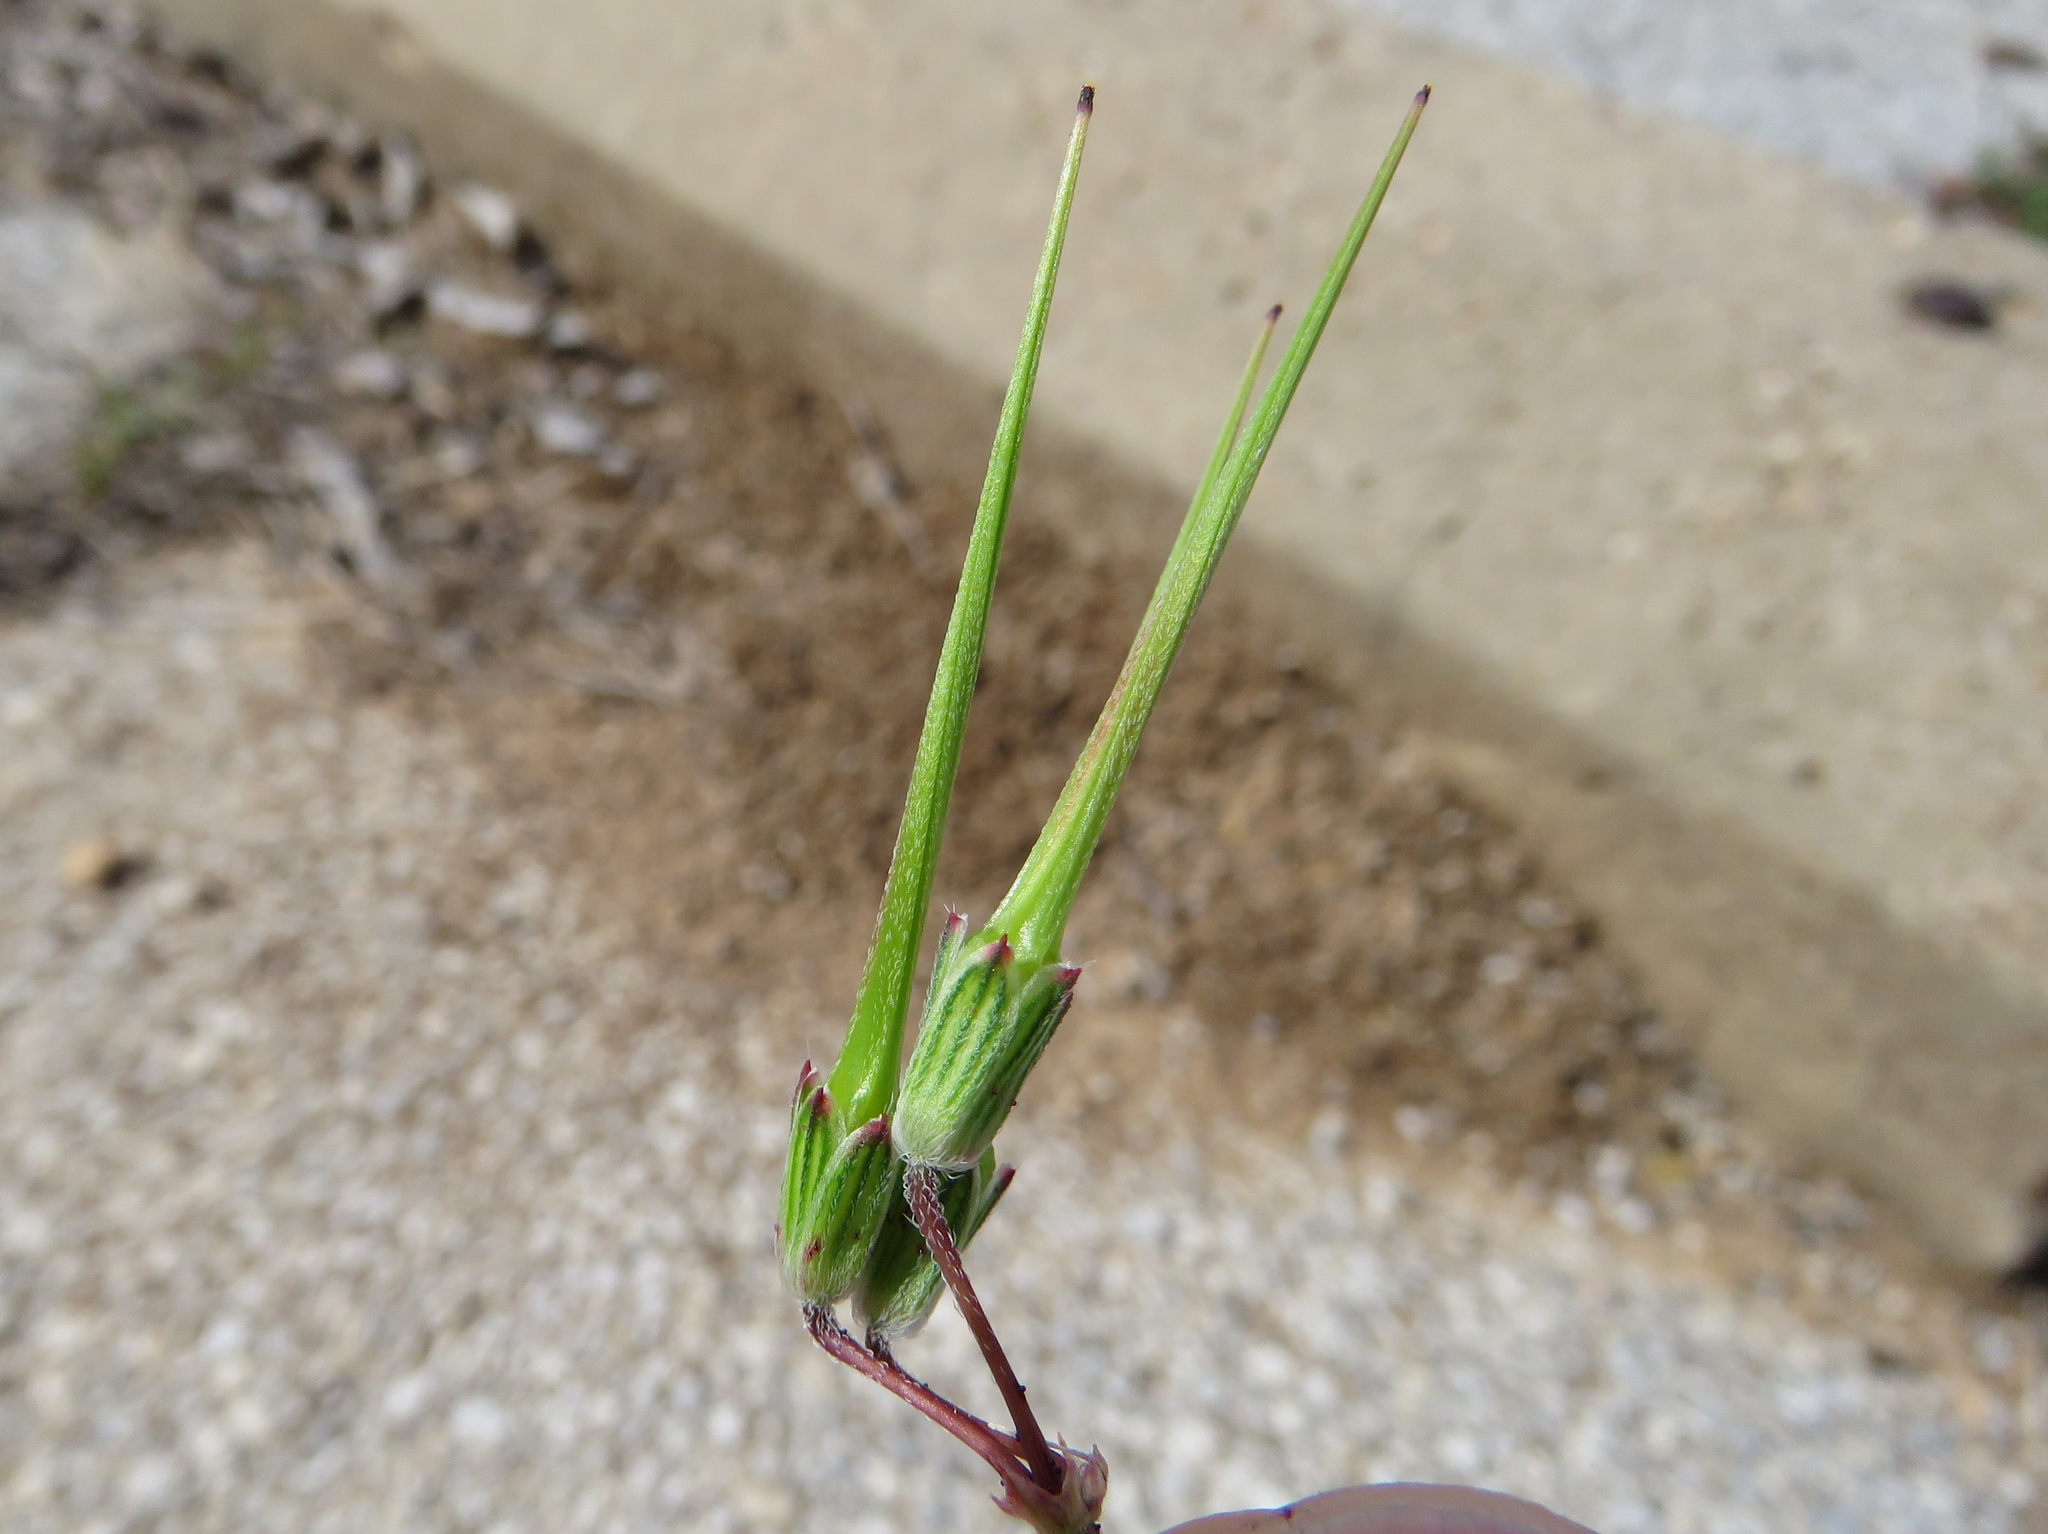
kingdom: Plantae
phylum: Tracheophyta
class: Magnoliopsida
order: Geraniales
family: Geraniaceae
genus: Erodium
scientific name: Erodium cicutarium
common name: Common stork's-bill
